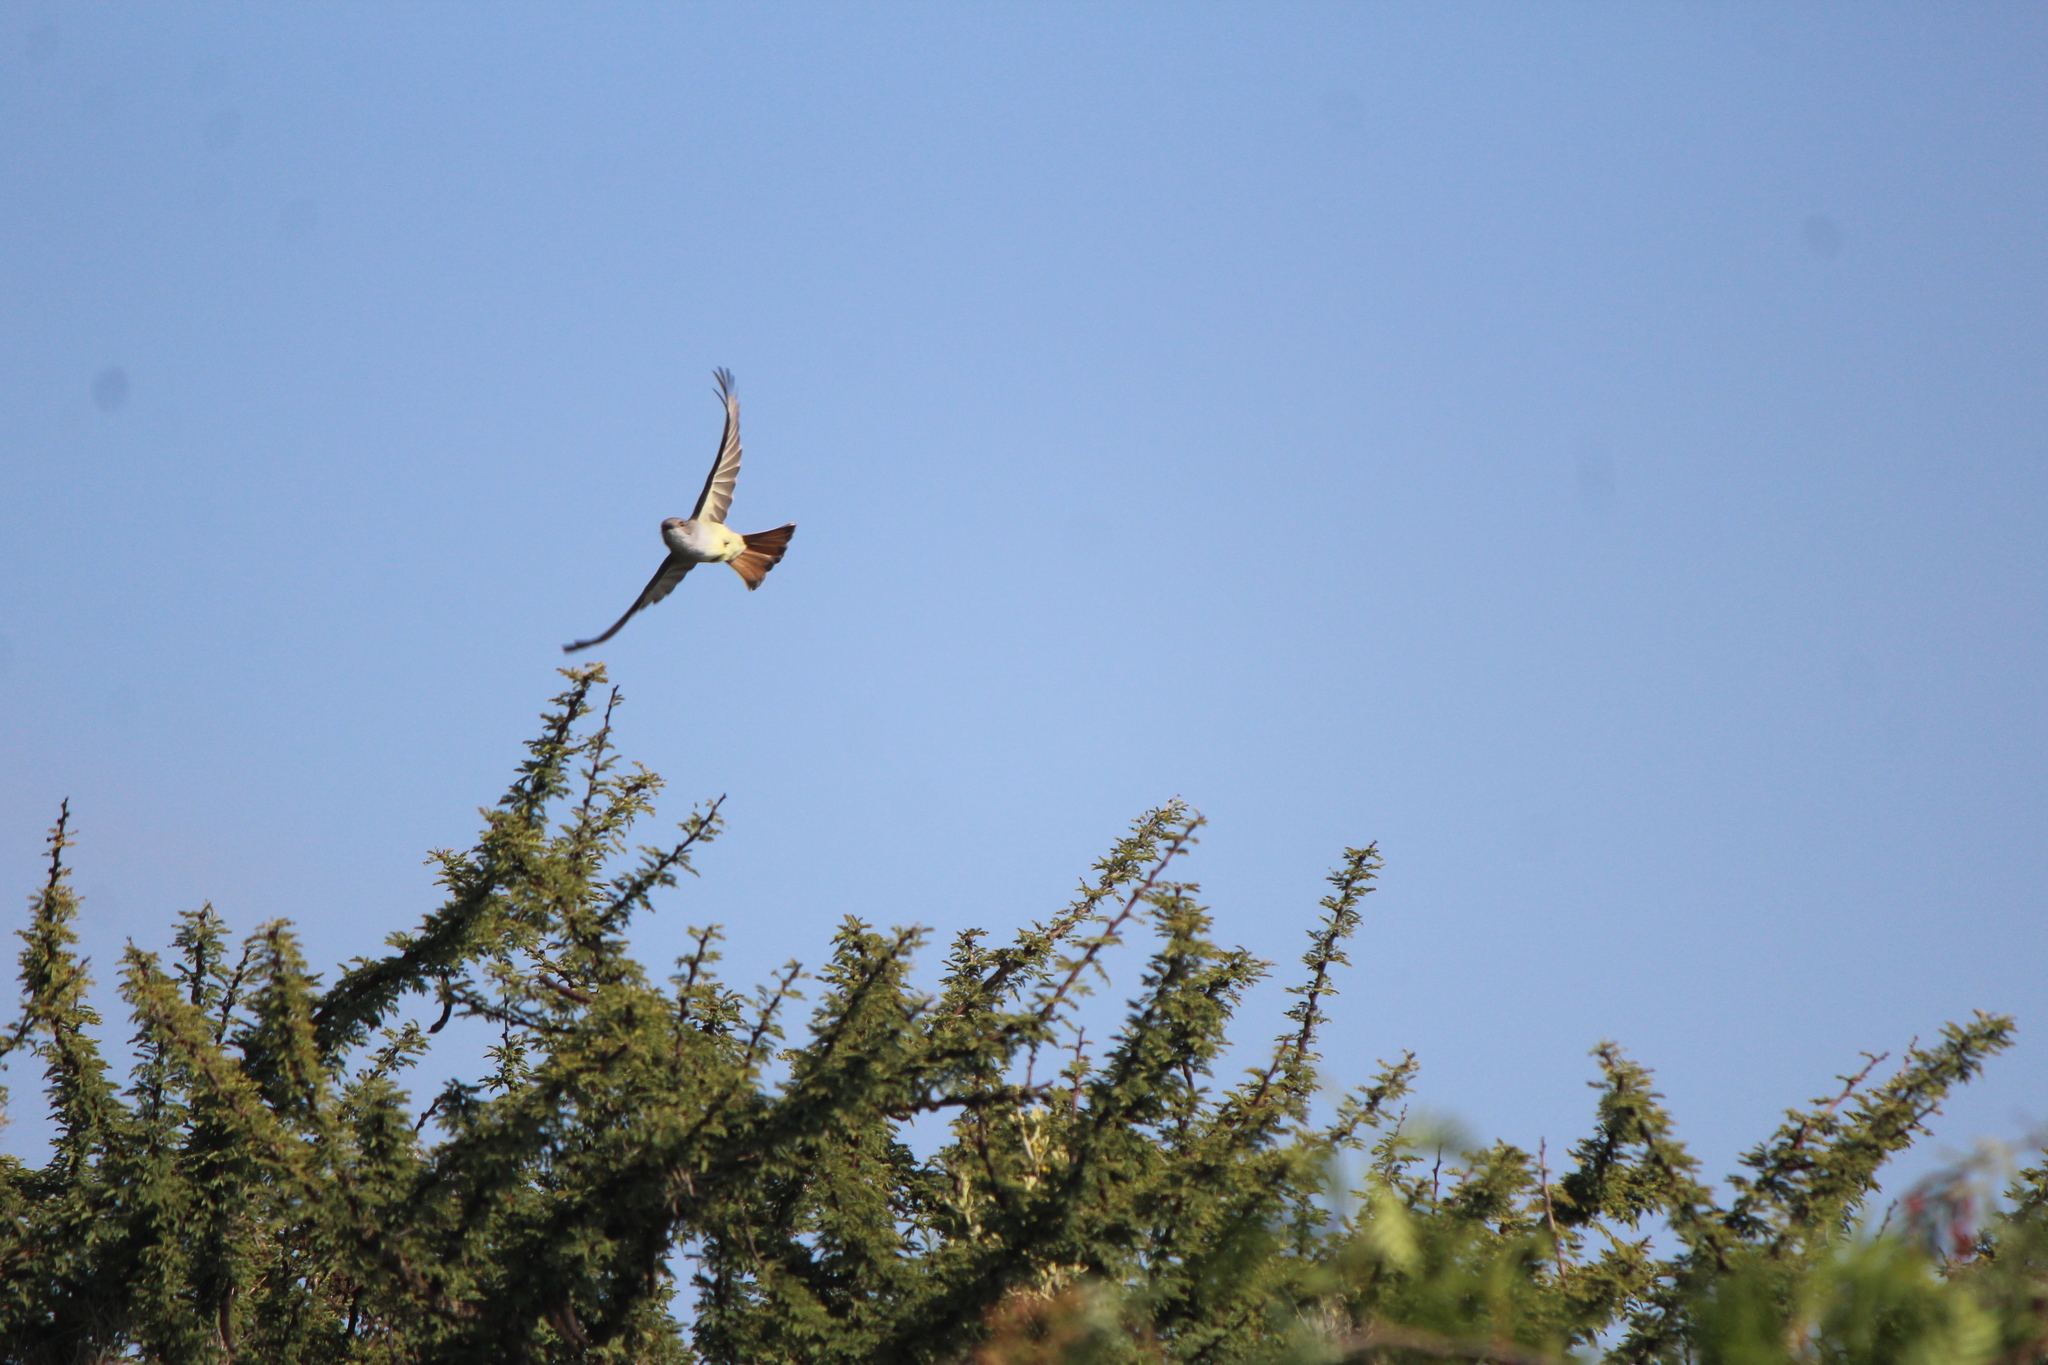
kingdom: Animalia
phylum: Chordata
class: Aves
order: Passeriformes
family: Tyrannidae
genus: Myiarchus
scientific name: Myiarchus cinerascens
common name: Ash-throated flycatcher
